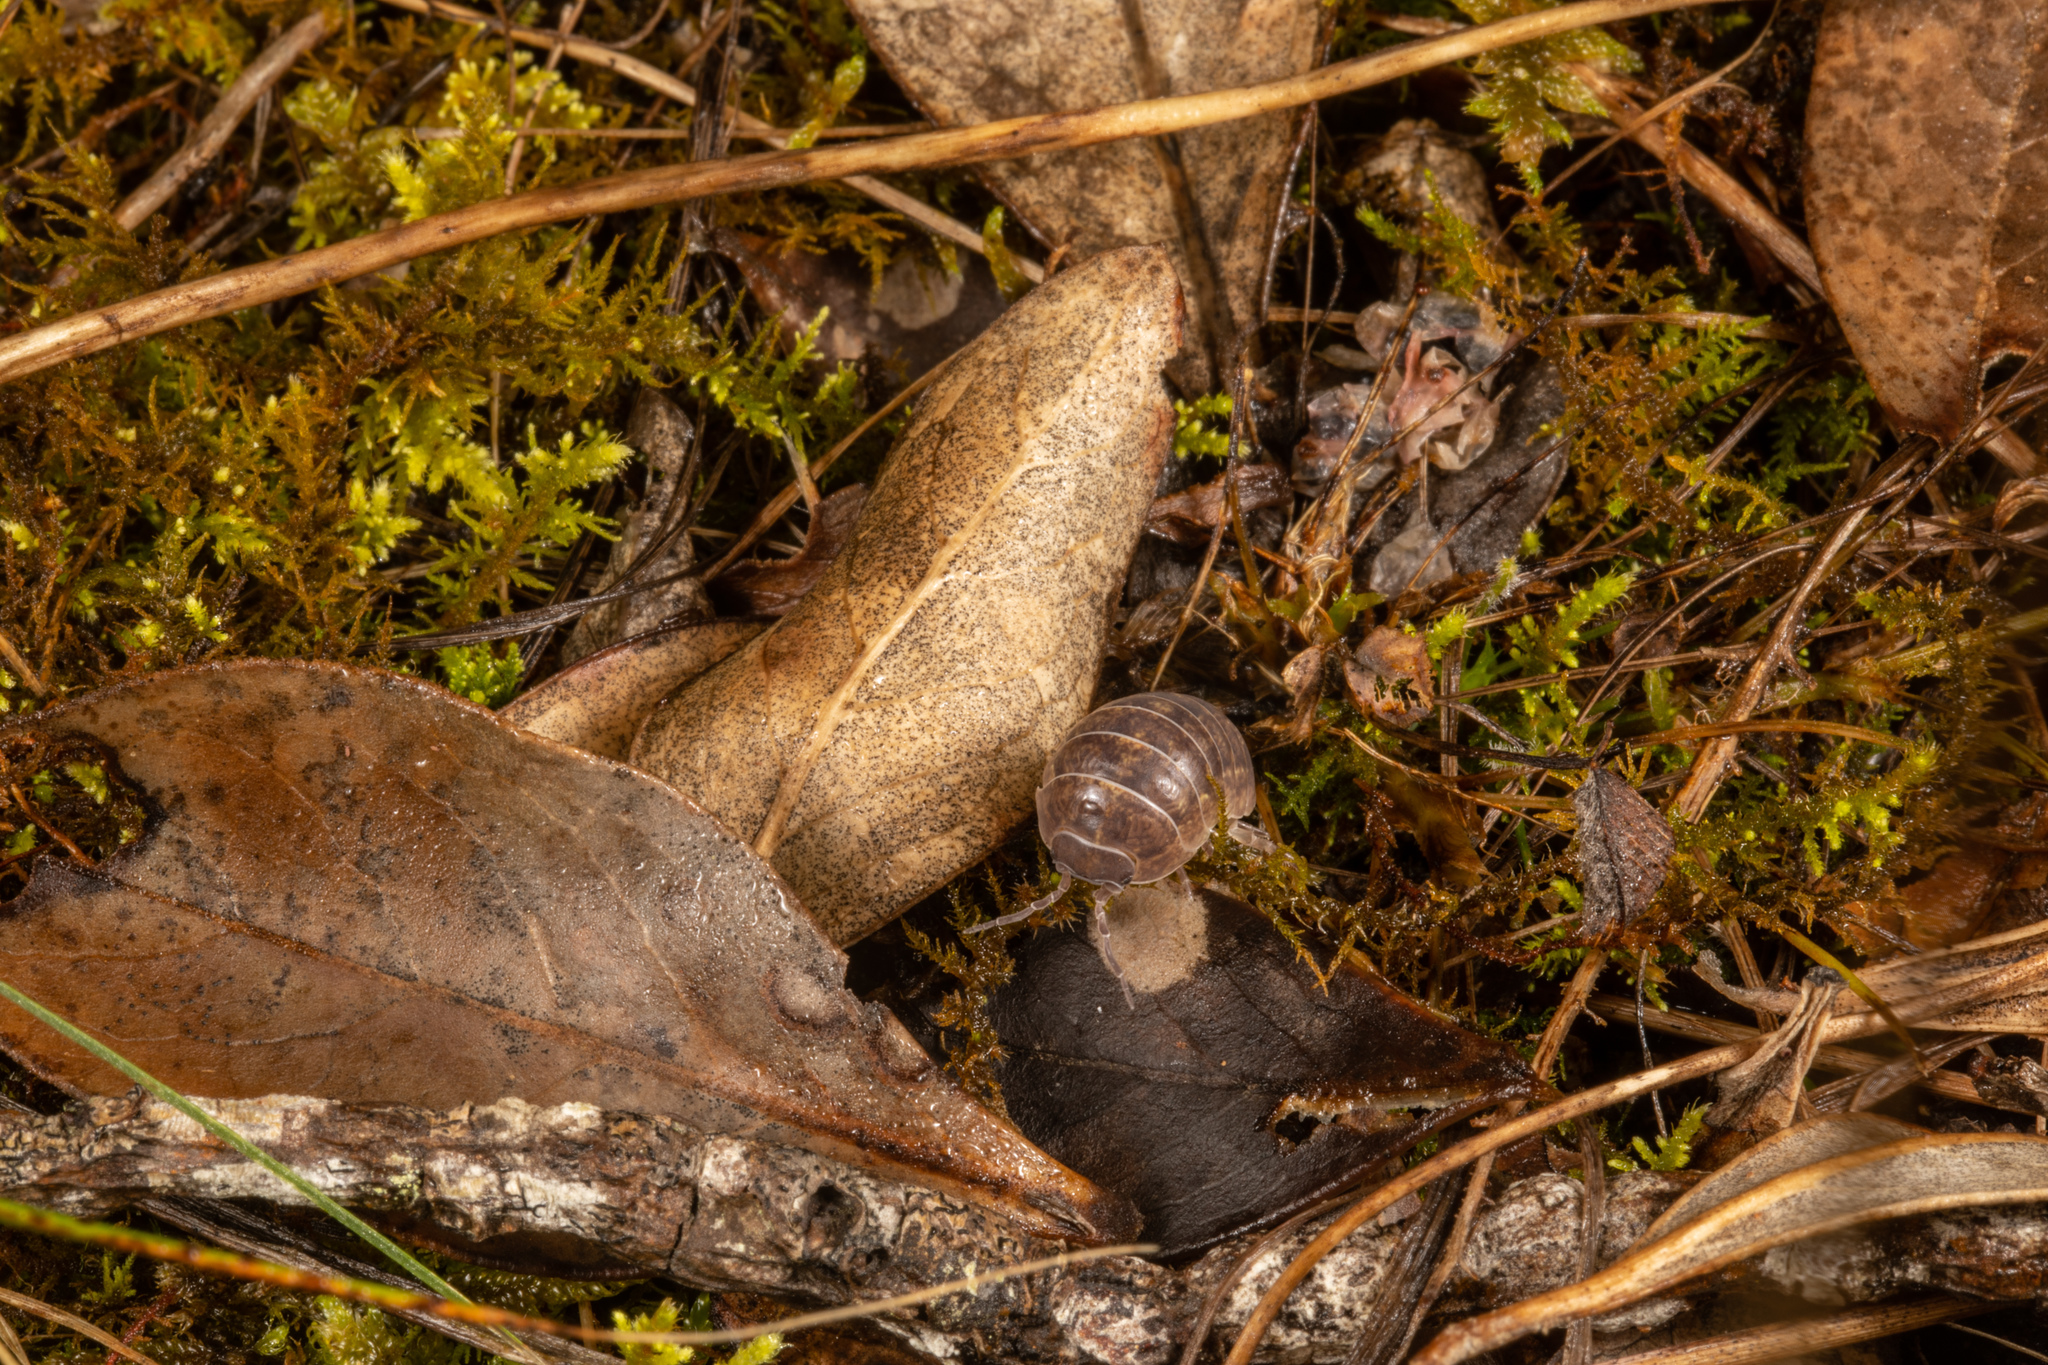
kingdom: Animalia
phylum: Arthropoda
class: Malacostraca
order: Isopoda
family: Armadillidiidae
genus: Armadillidium
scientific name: Armadillidium vulgare
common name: Common pill woodlouse
